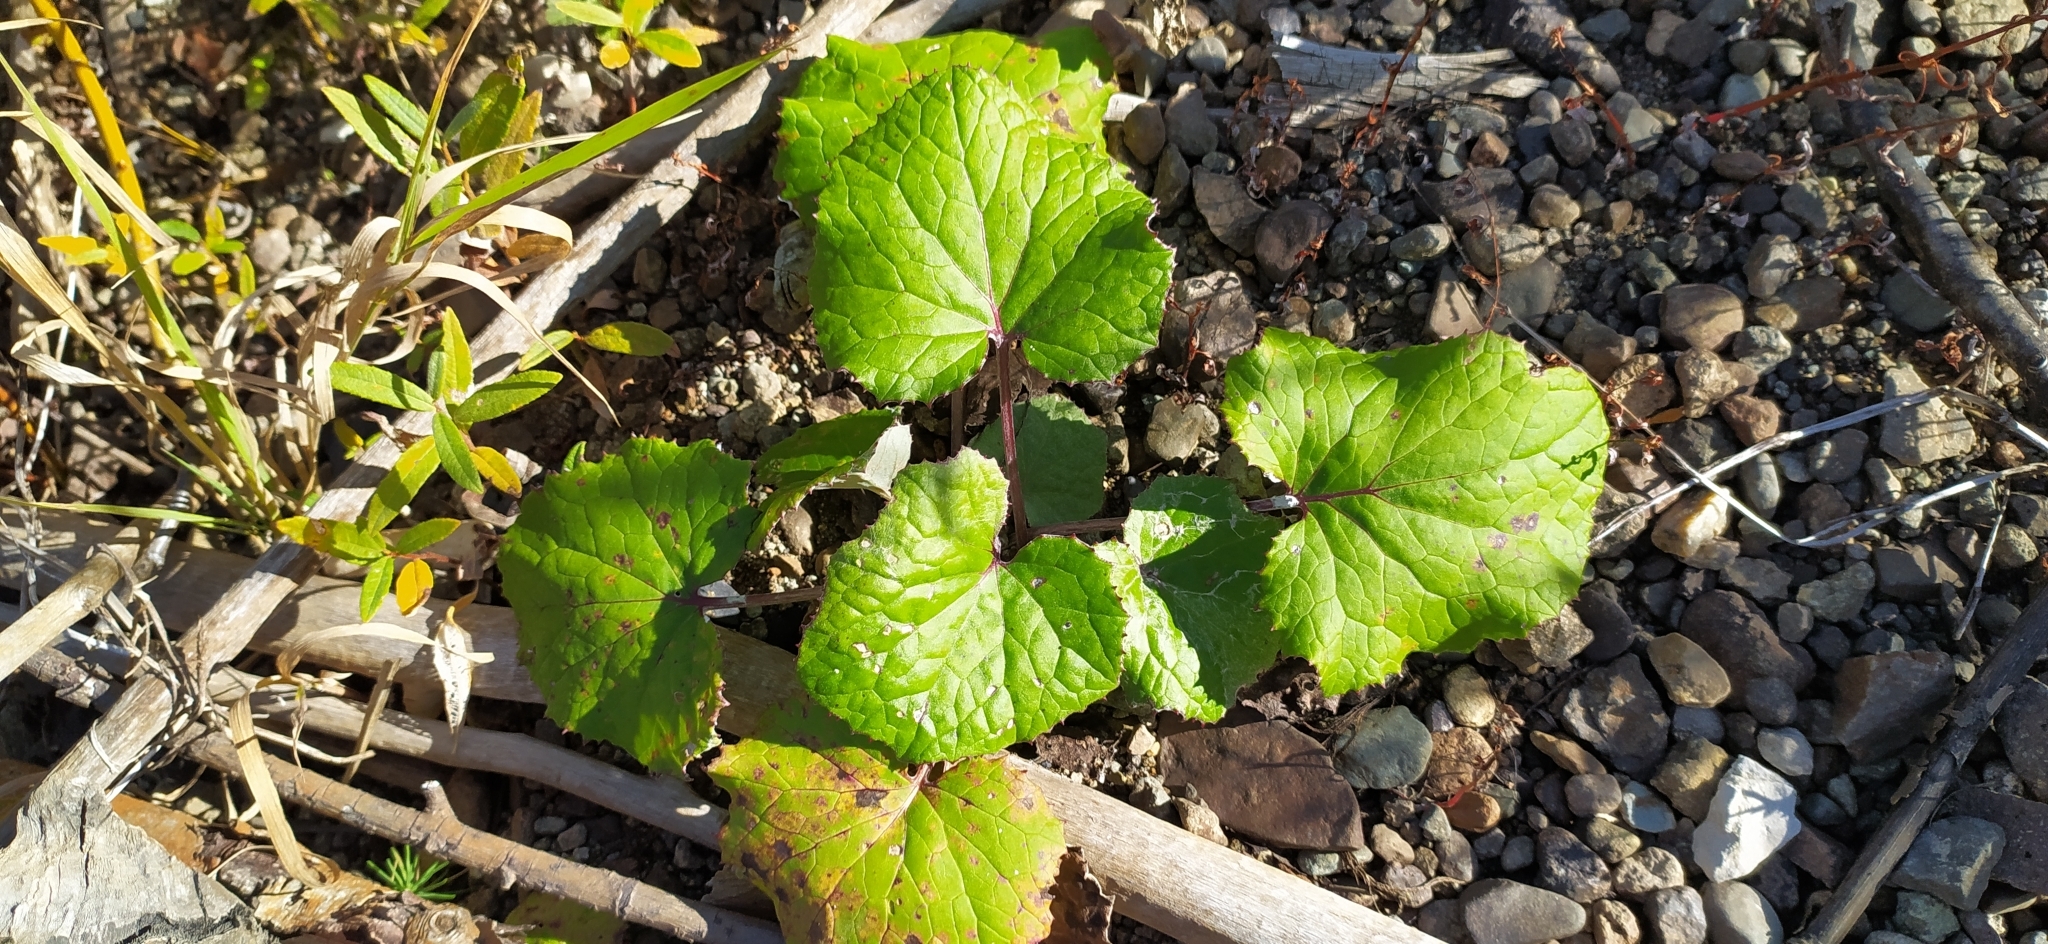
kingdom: Plantae
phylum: Tracheophyta
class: Magnoliopsida
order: Asterales
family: Asteraceae
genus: Tussilago
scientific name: Tussilago farfara
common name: Coltsfoot
